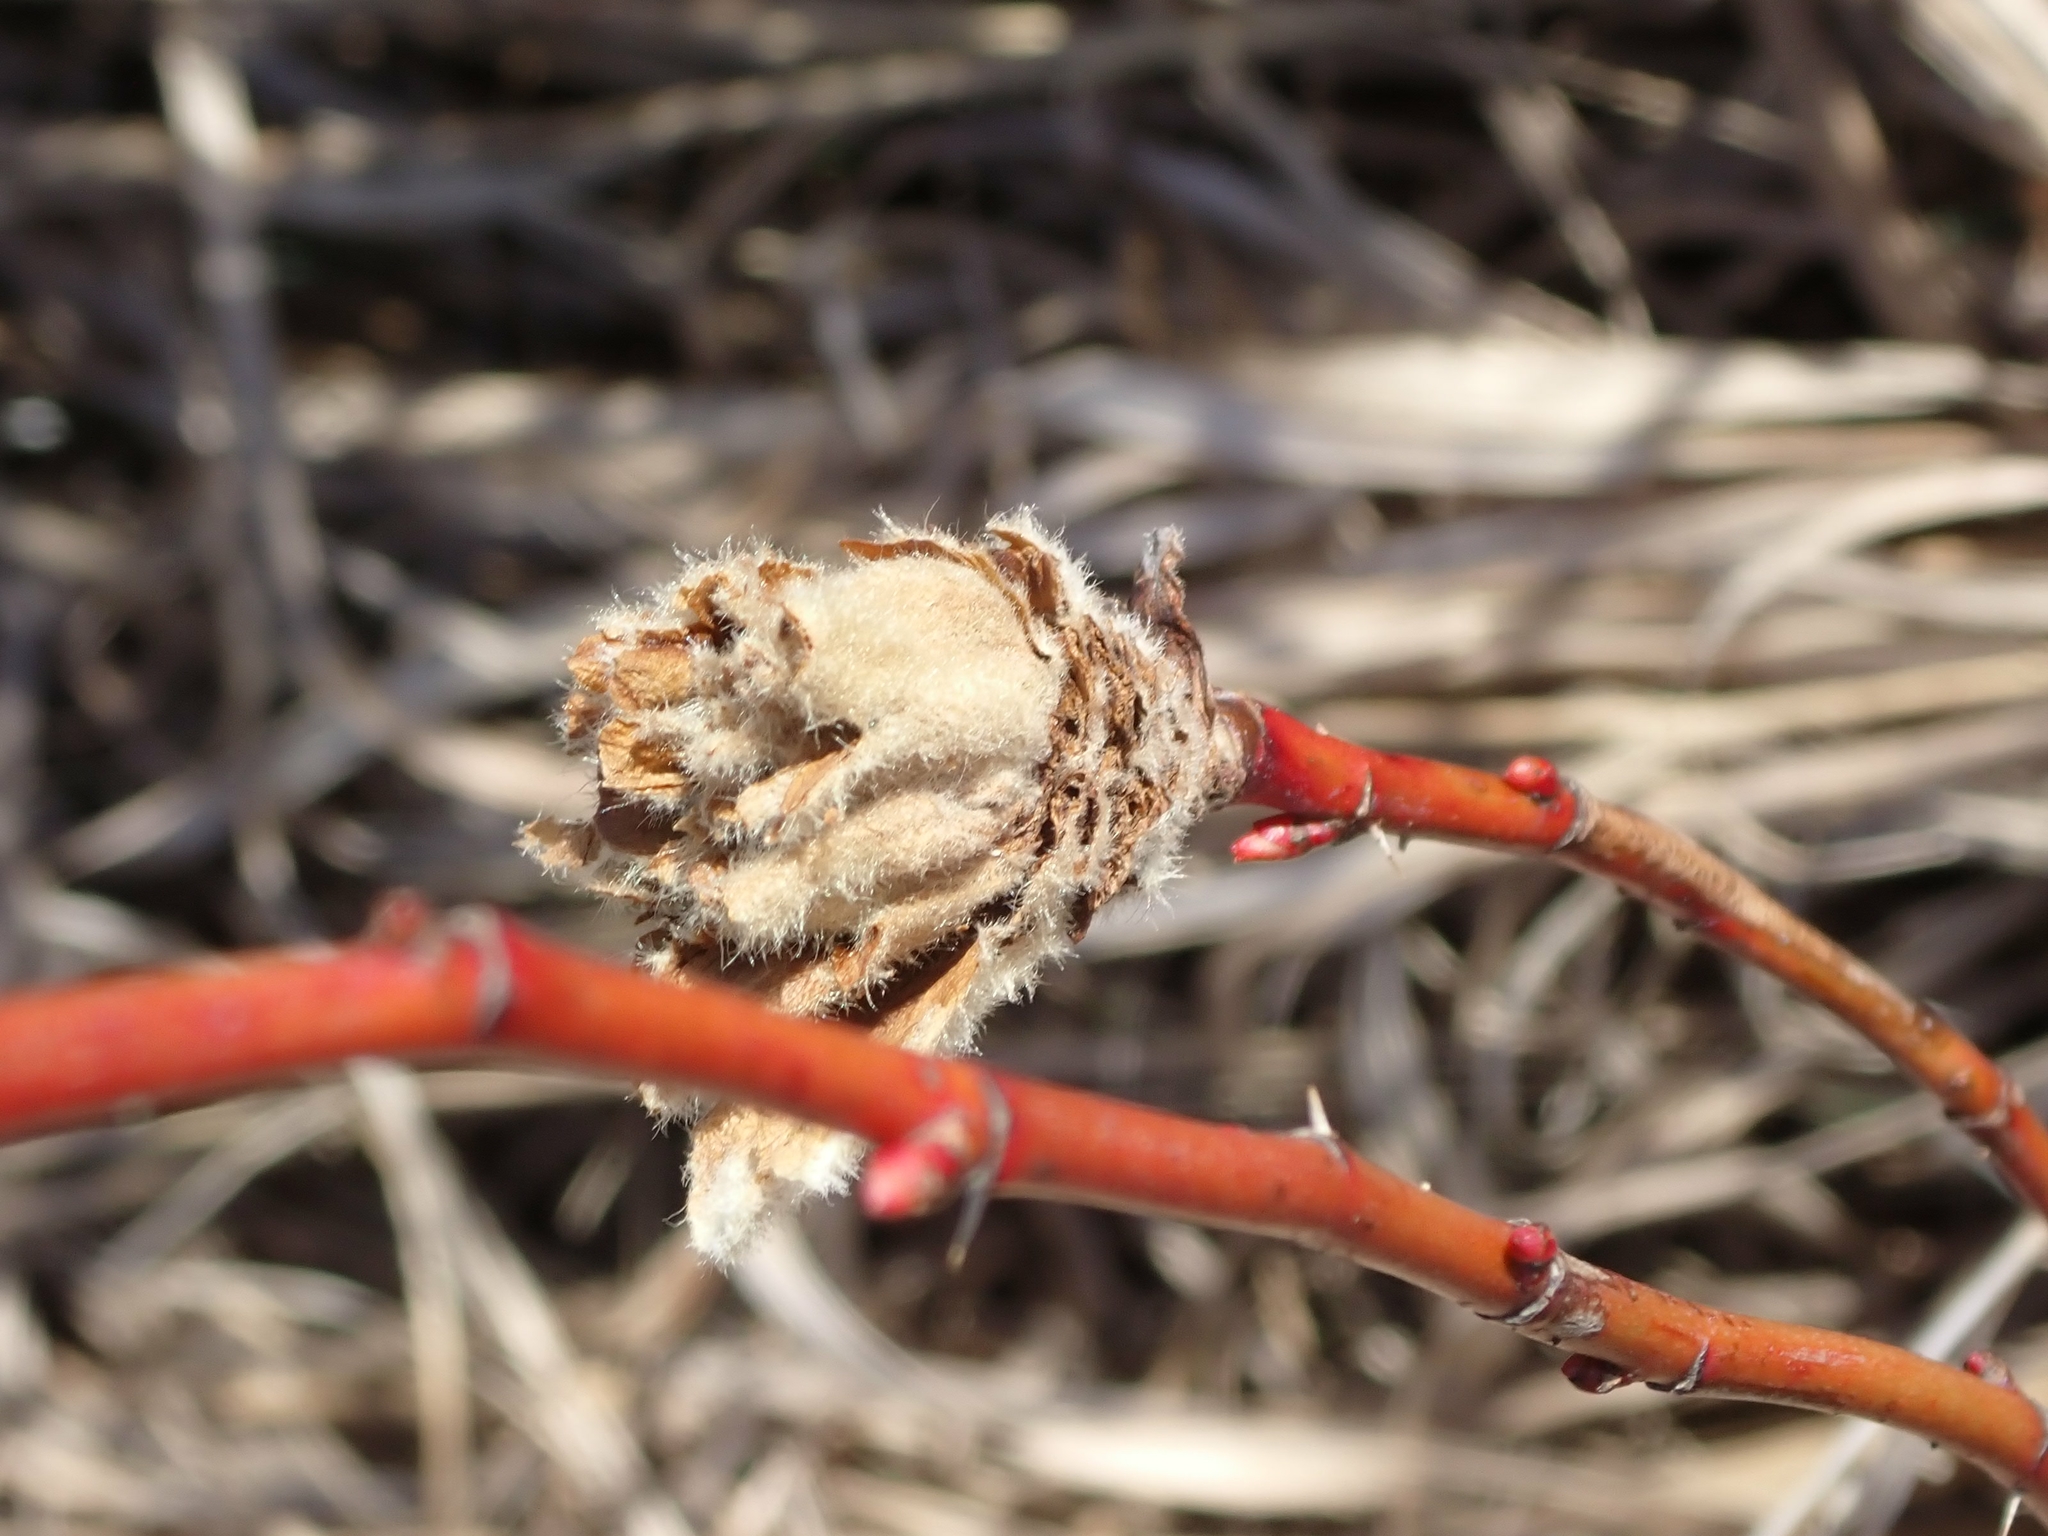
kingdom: Animalia
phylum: Arthropoda
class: Insecta
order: Diptera
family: Cecidomyiidae
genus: Rabdophaga
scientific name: Rabdophaga rosacea
